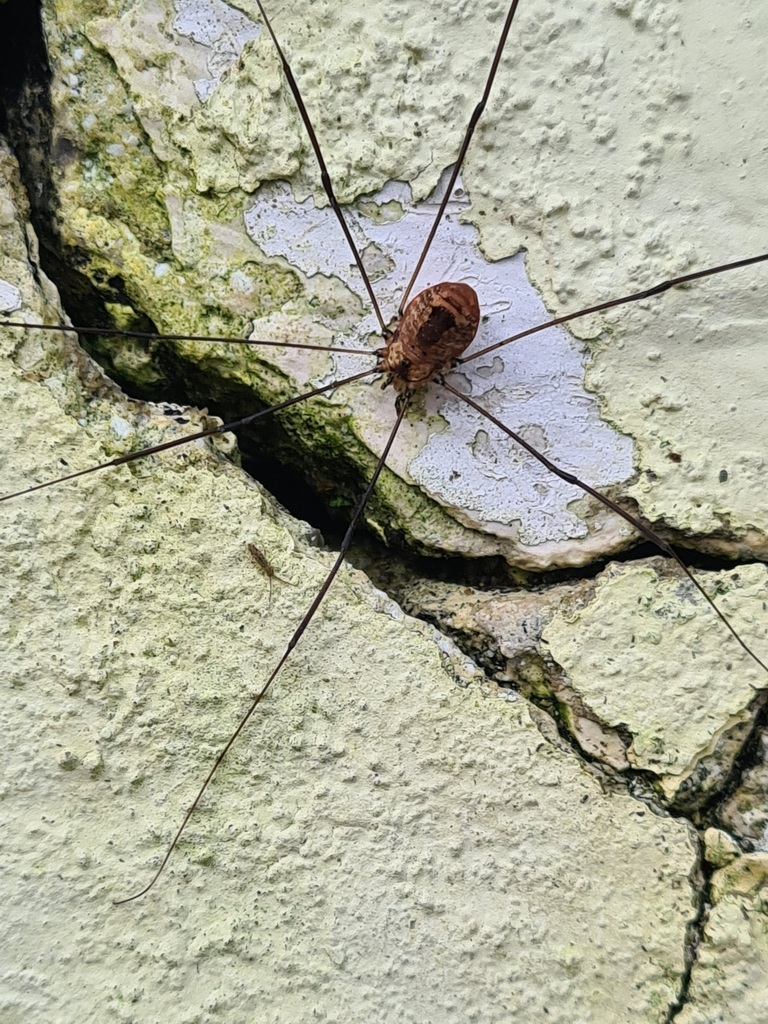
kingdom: Animalia
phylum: Arthropoda
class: Arachnida
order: Opiliones
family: Sclerosomatidae
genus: Leiobunum
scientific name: Leiobunum rotundum
